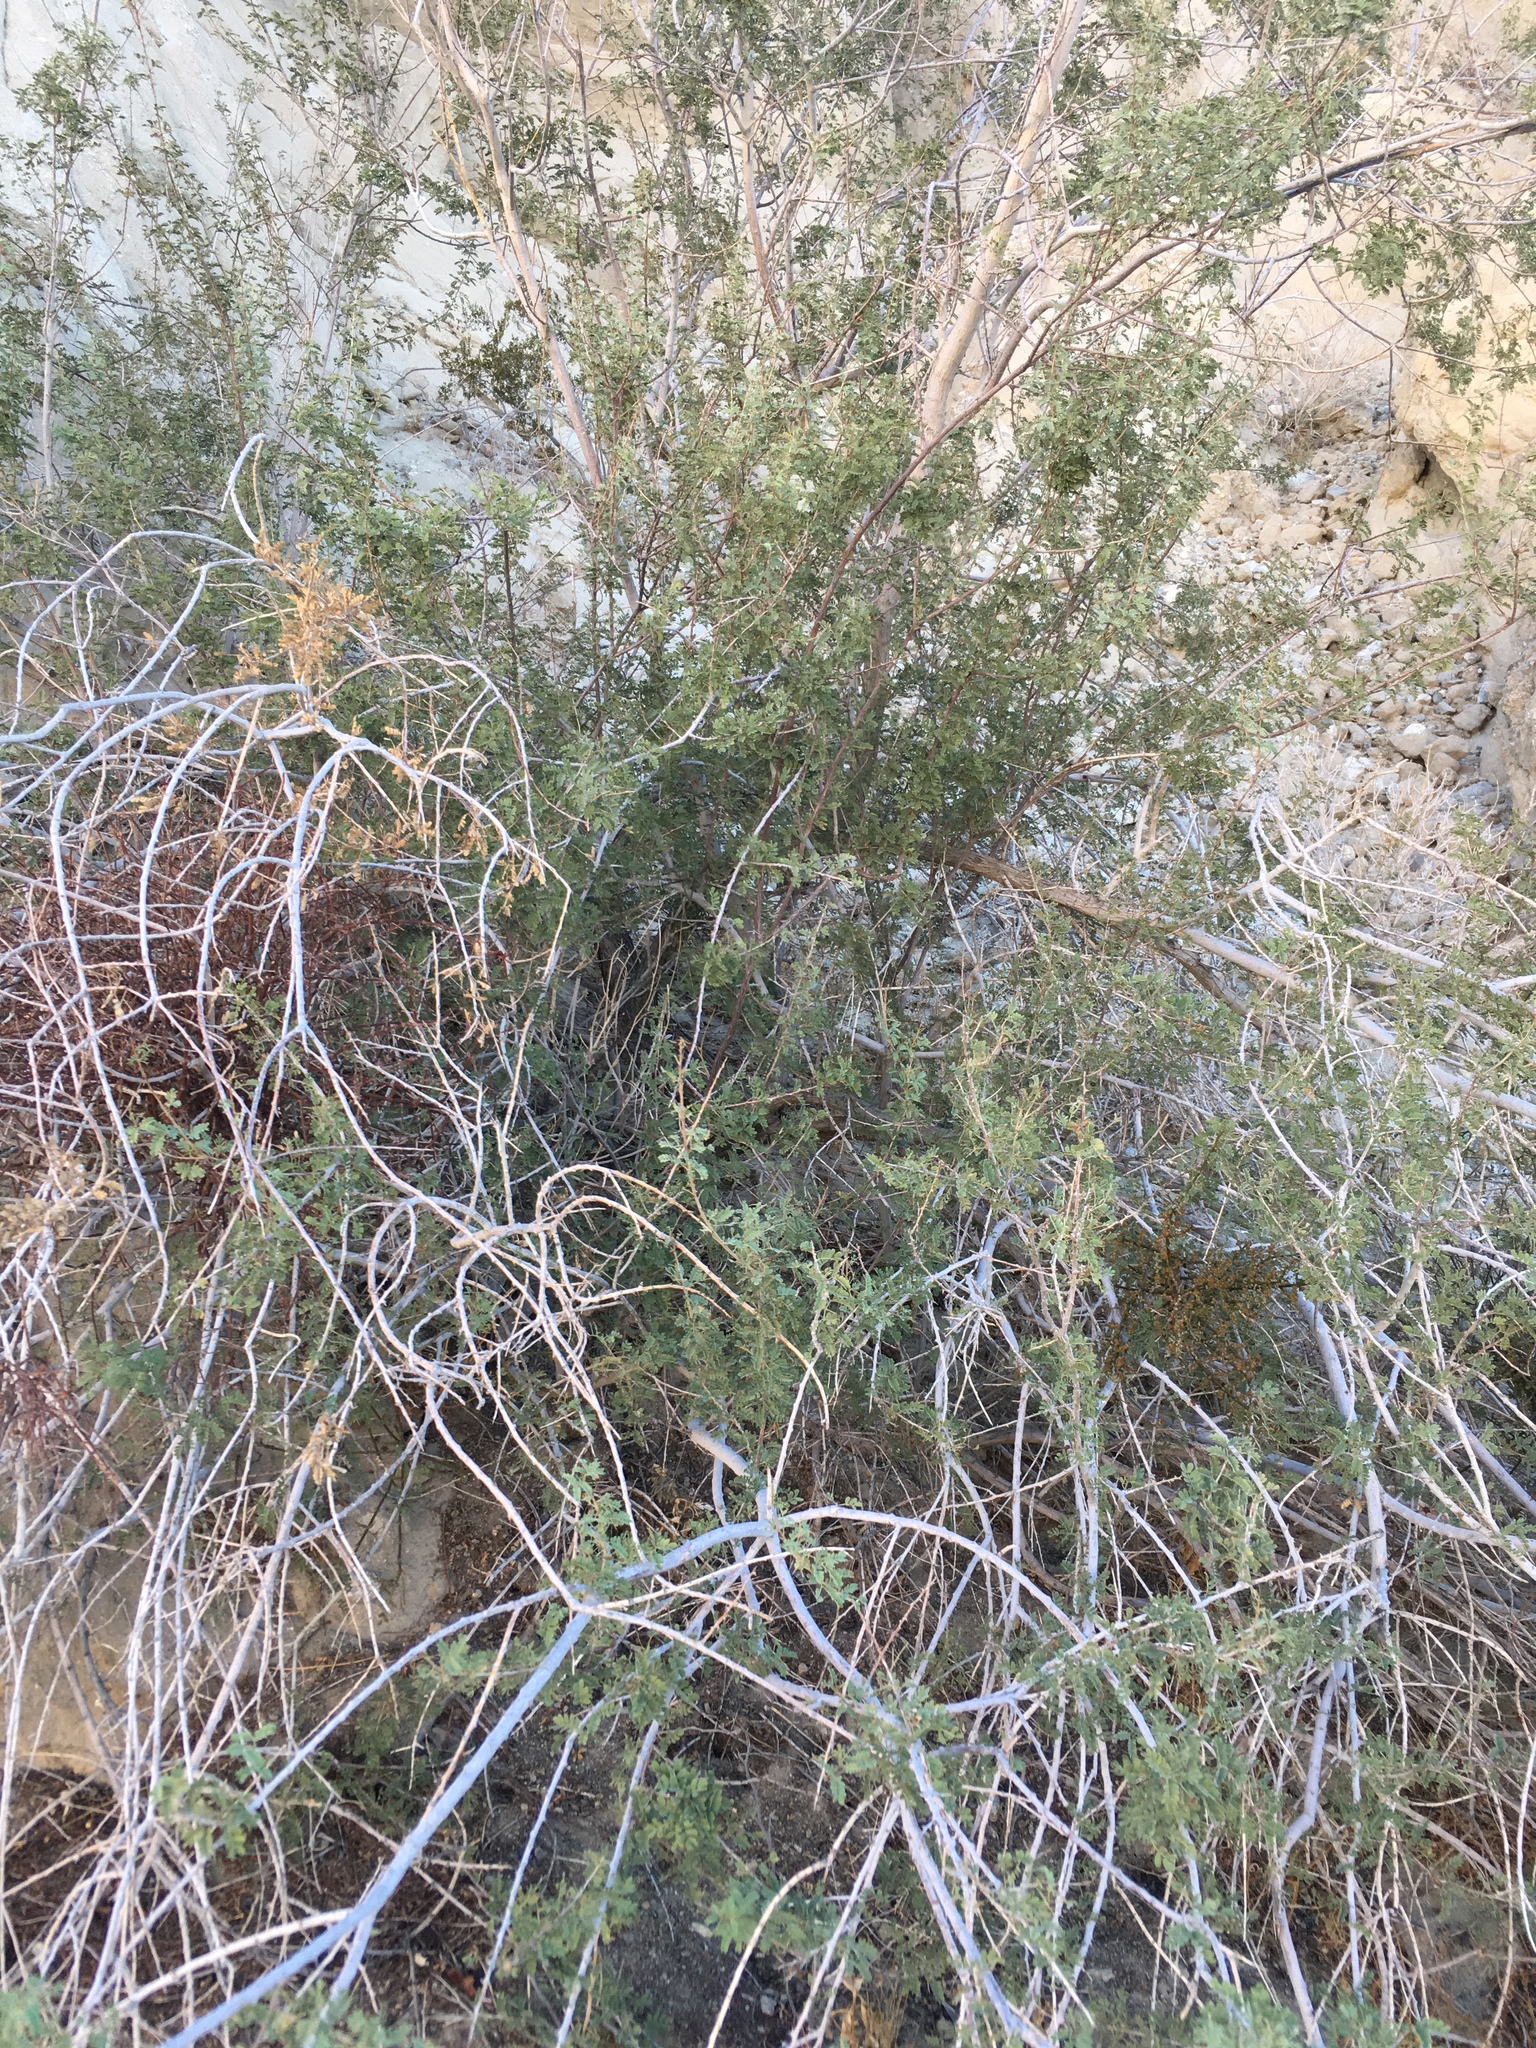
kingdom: Plantae
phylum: Tracheophyta
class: Magnoliopsida
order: Fabales
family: Fabaceae
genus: Senegalia
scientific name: Senegalia greggii
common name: Texas-mimosa
